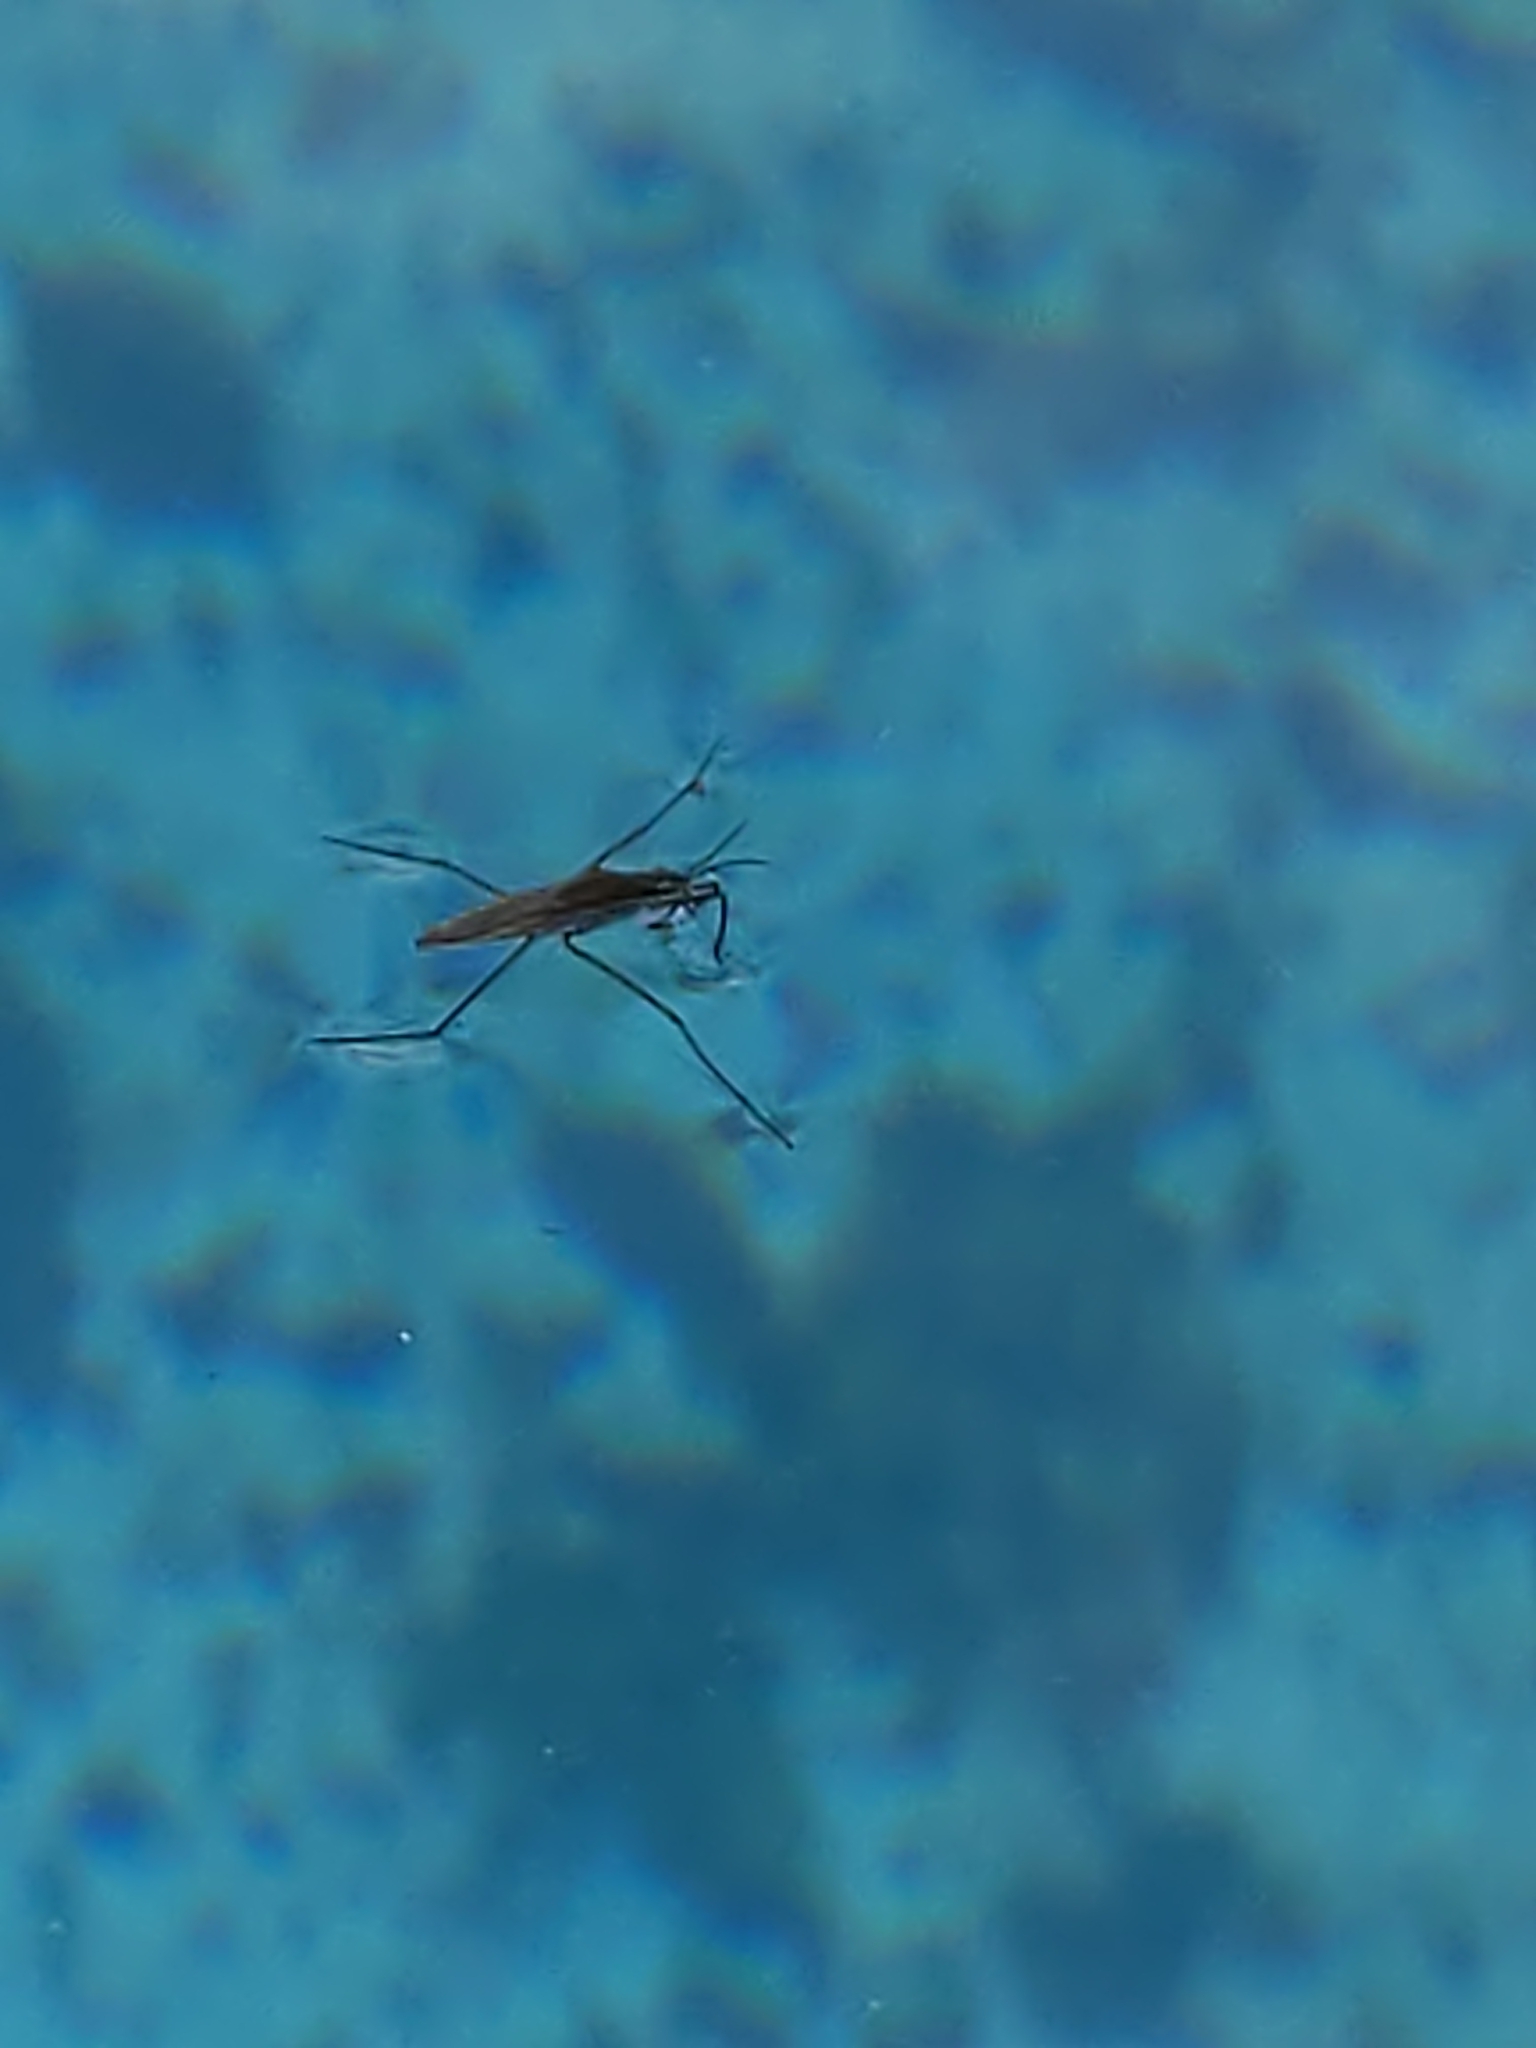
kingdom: Animalia
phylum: Arthropoda
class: Insecta
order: Hemiptera
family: Gerridae
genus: Gerris
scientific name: Gerris
